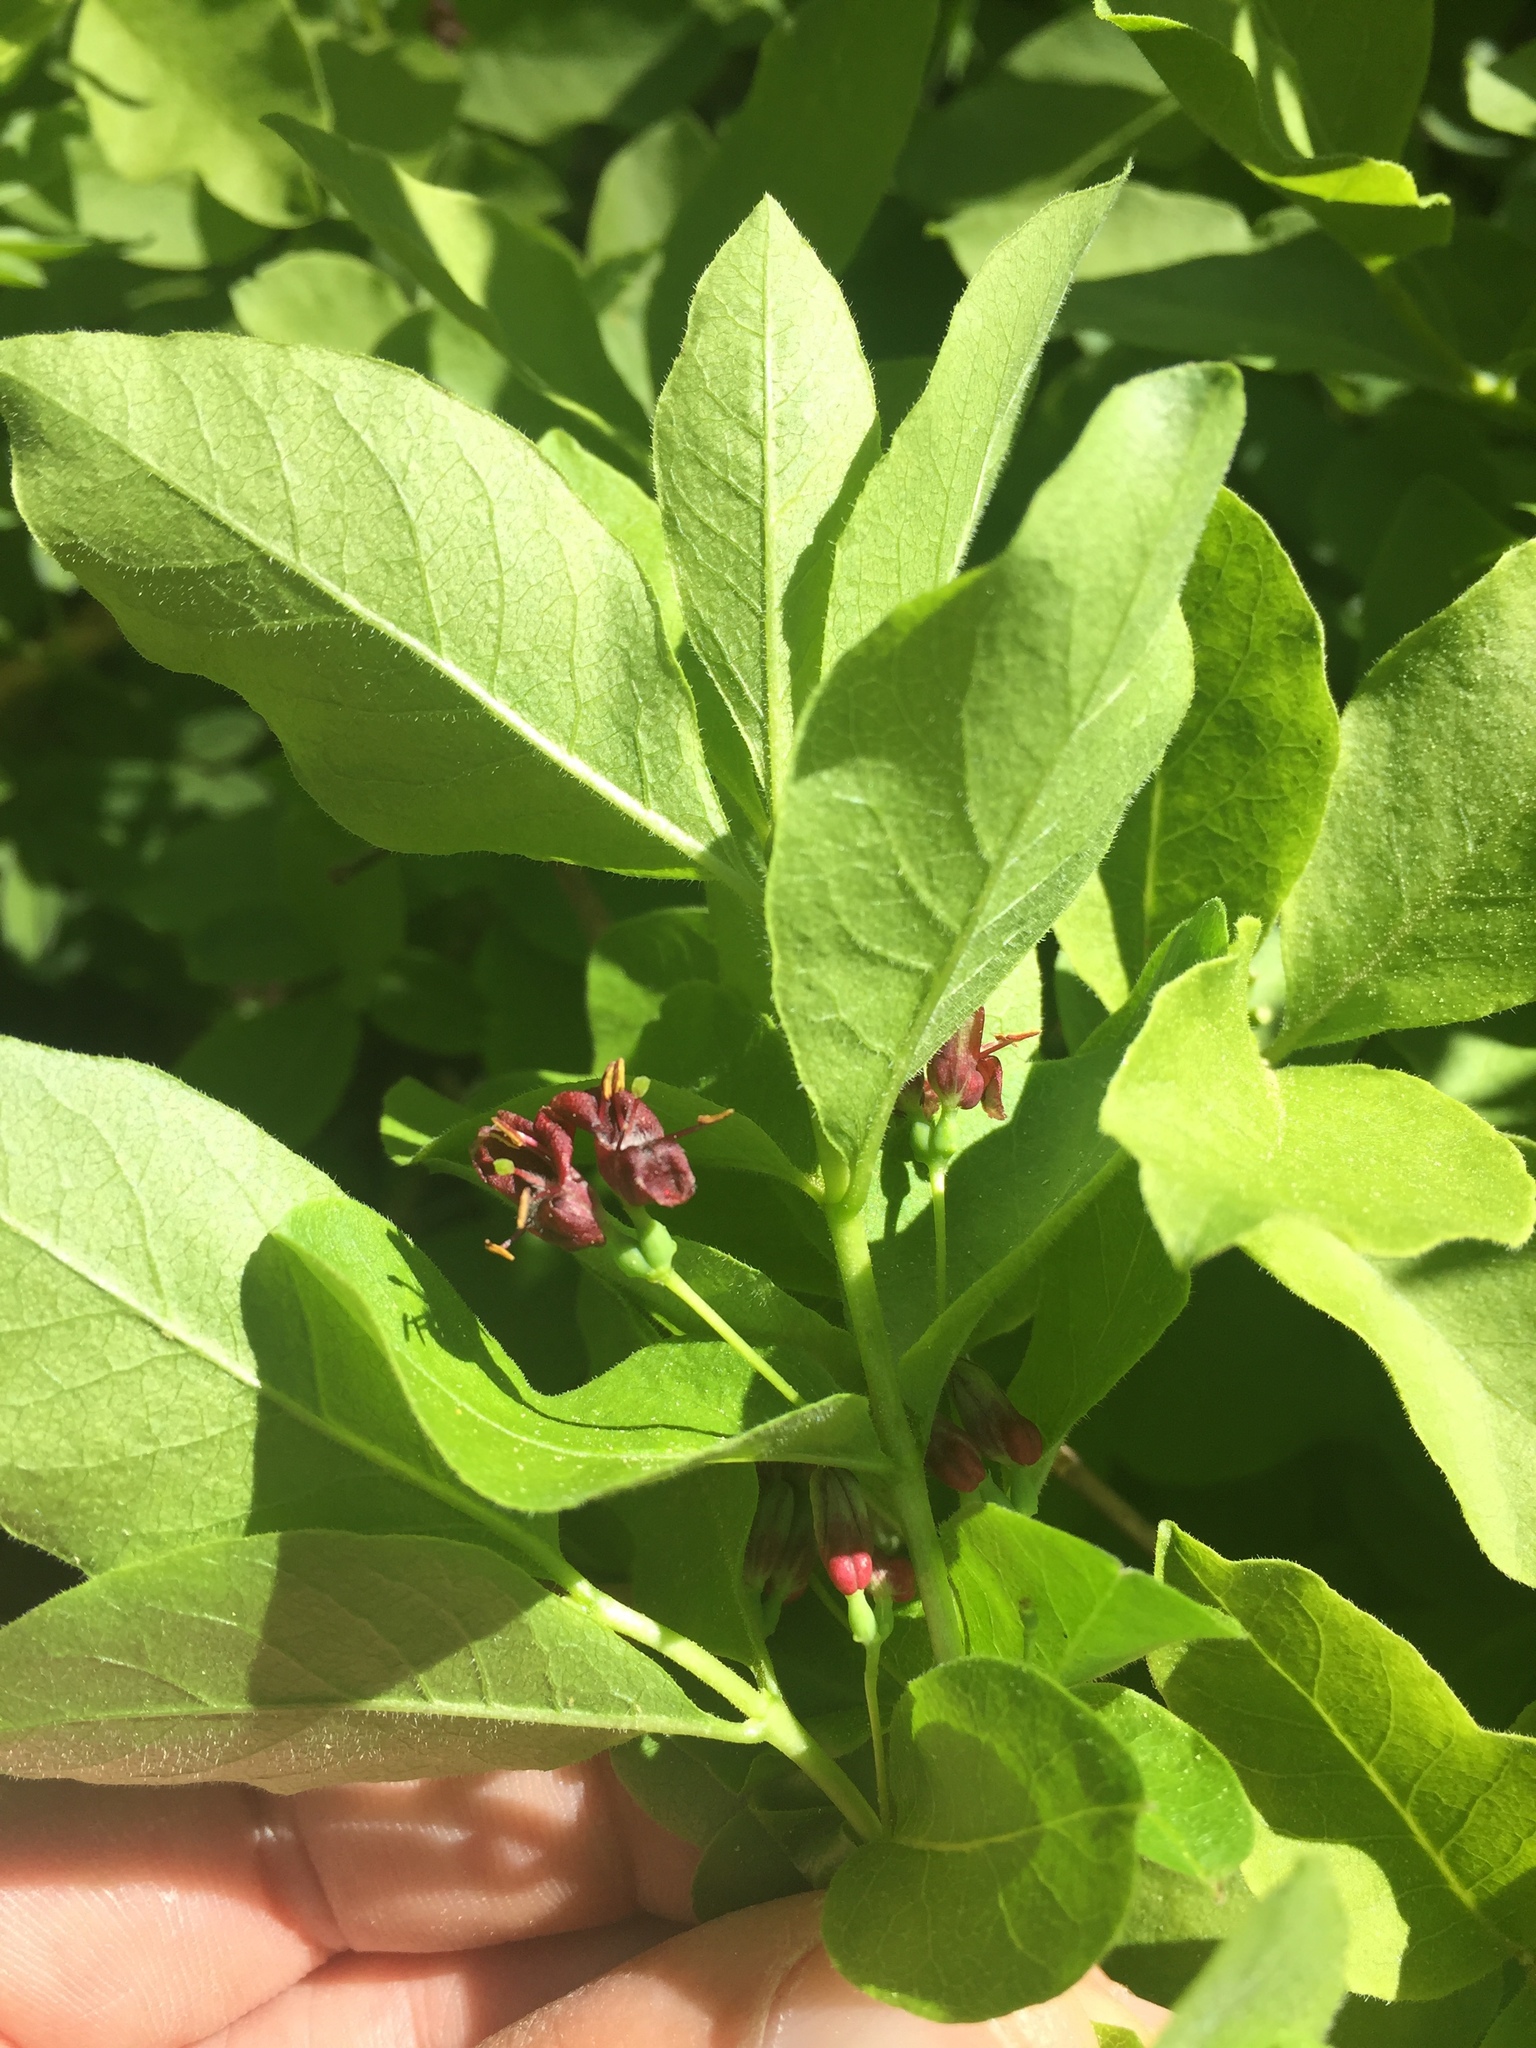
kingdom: Plantae
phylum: Tracheophyta
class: Magnoliopsida
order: Dipsacales
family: Caprifoliaceae
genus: Lonicera
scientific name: Lonicera conjugialis
